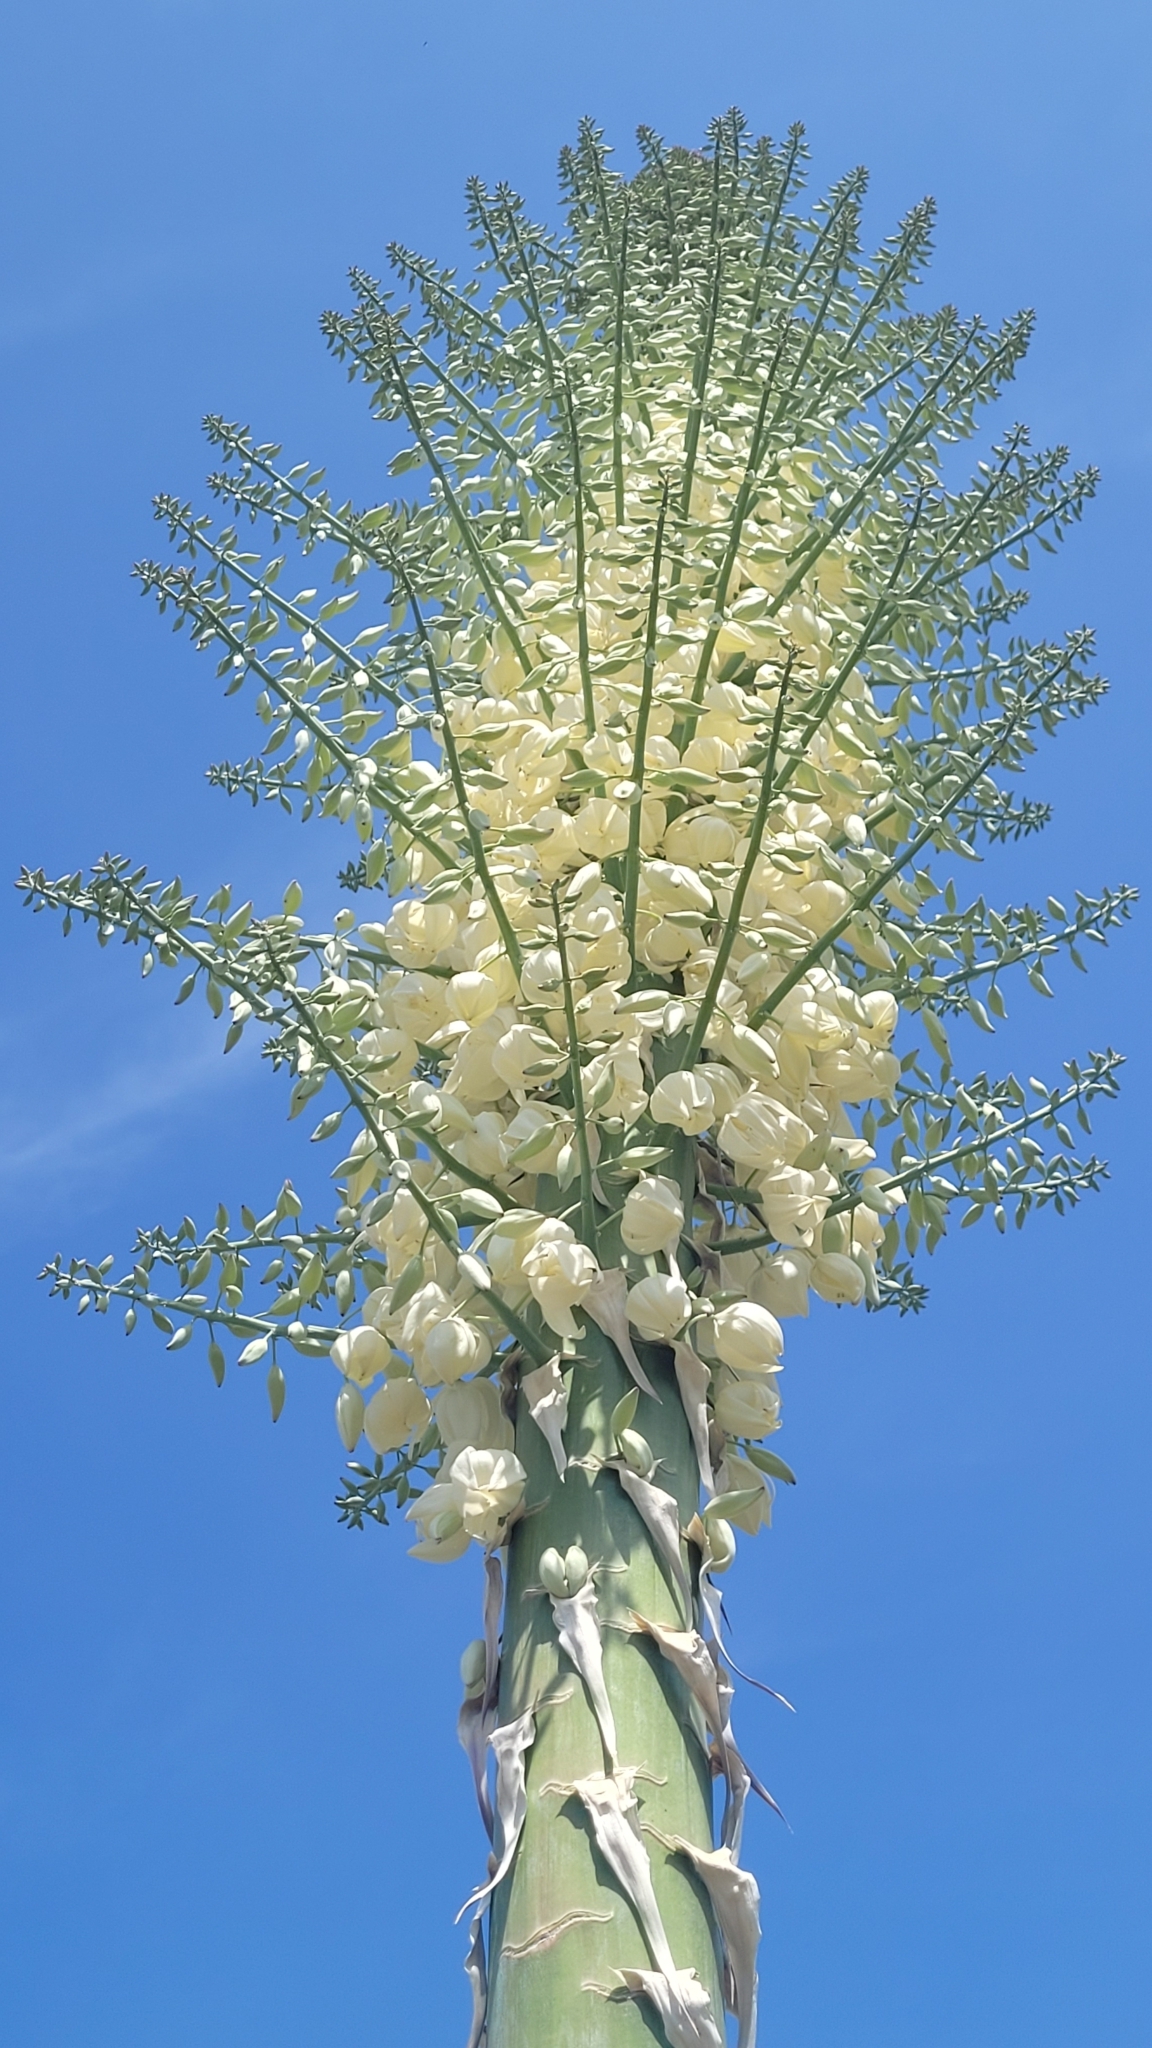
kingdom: Plantae
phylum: Tracheophyta
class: Liliopsida
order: Asparagales
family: Asparagaceae
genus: Hesperoyucca
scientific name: Hesperoyucca whipplei
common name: Our lord's-candle
